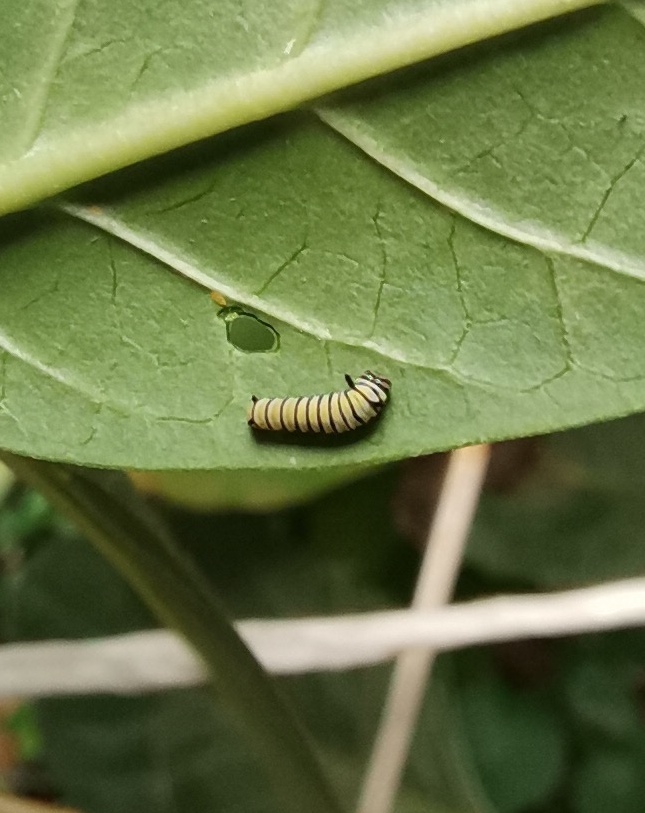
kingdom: Animalia
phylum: Arthropoda
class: Insecta
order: Lepidoptera
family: Nymphalidae
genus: Danaus
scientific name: Danaus plexippus
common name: Monarch
